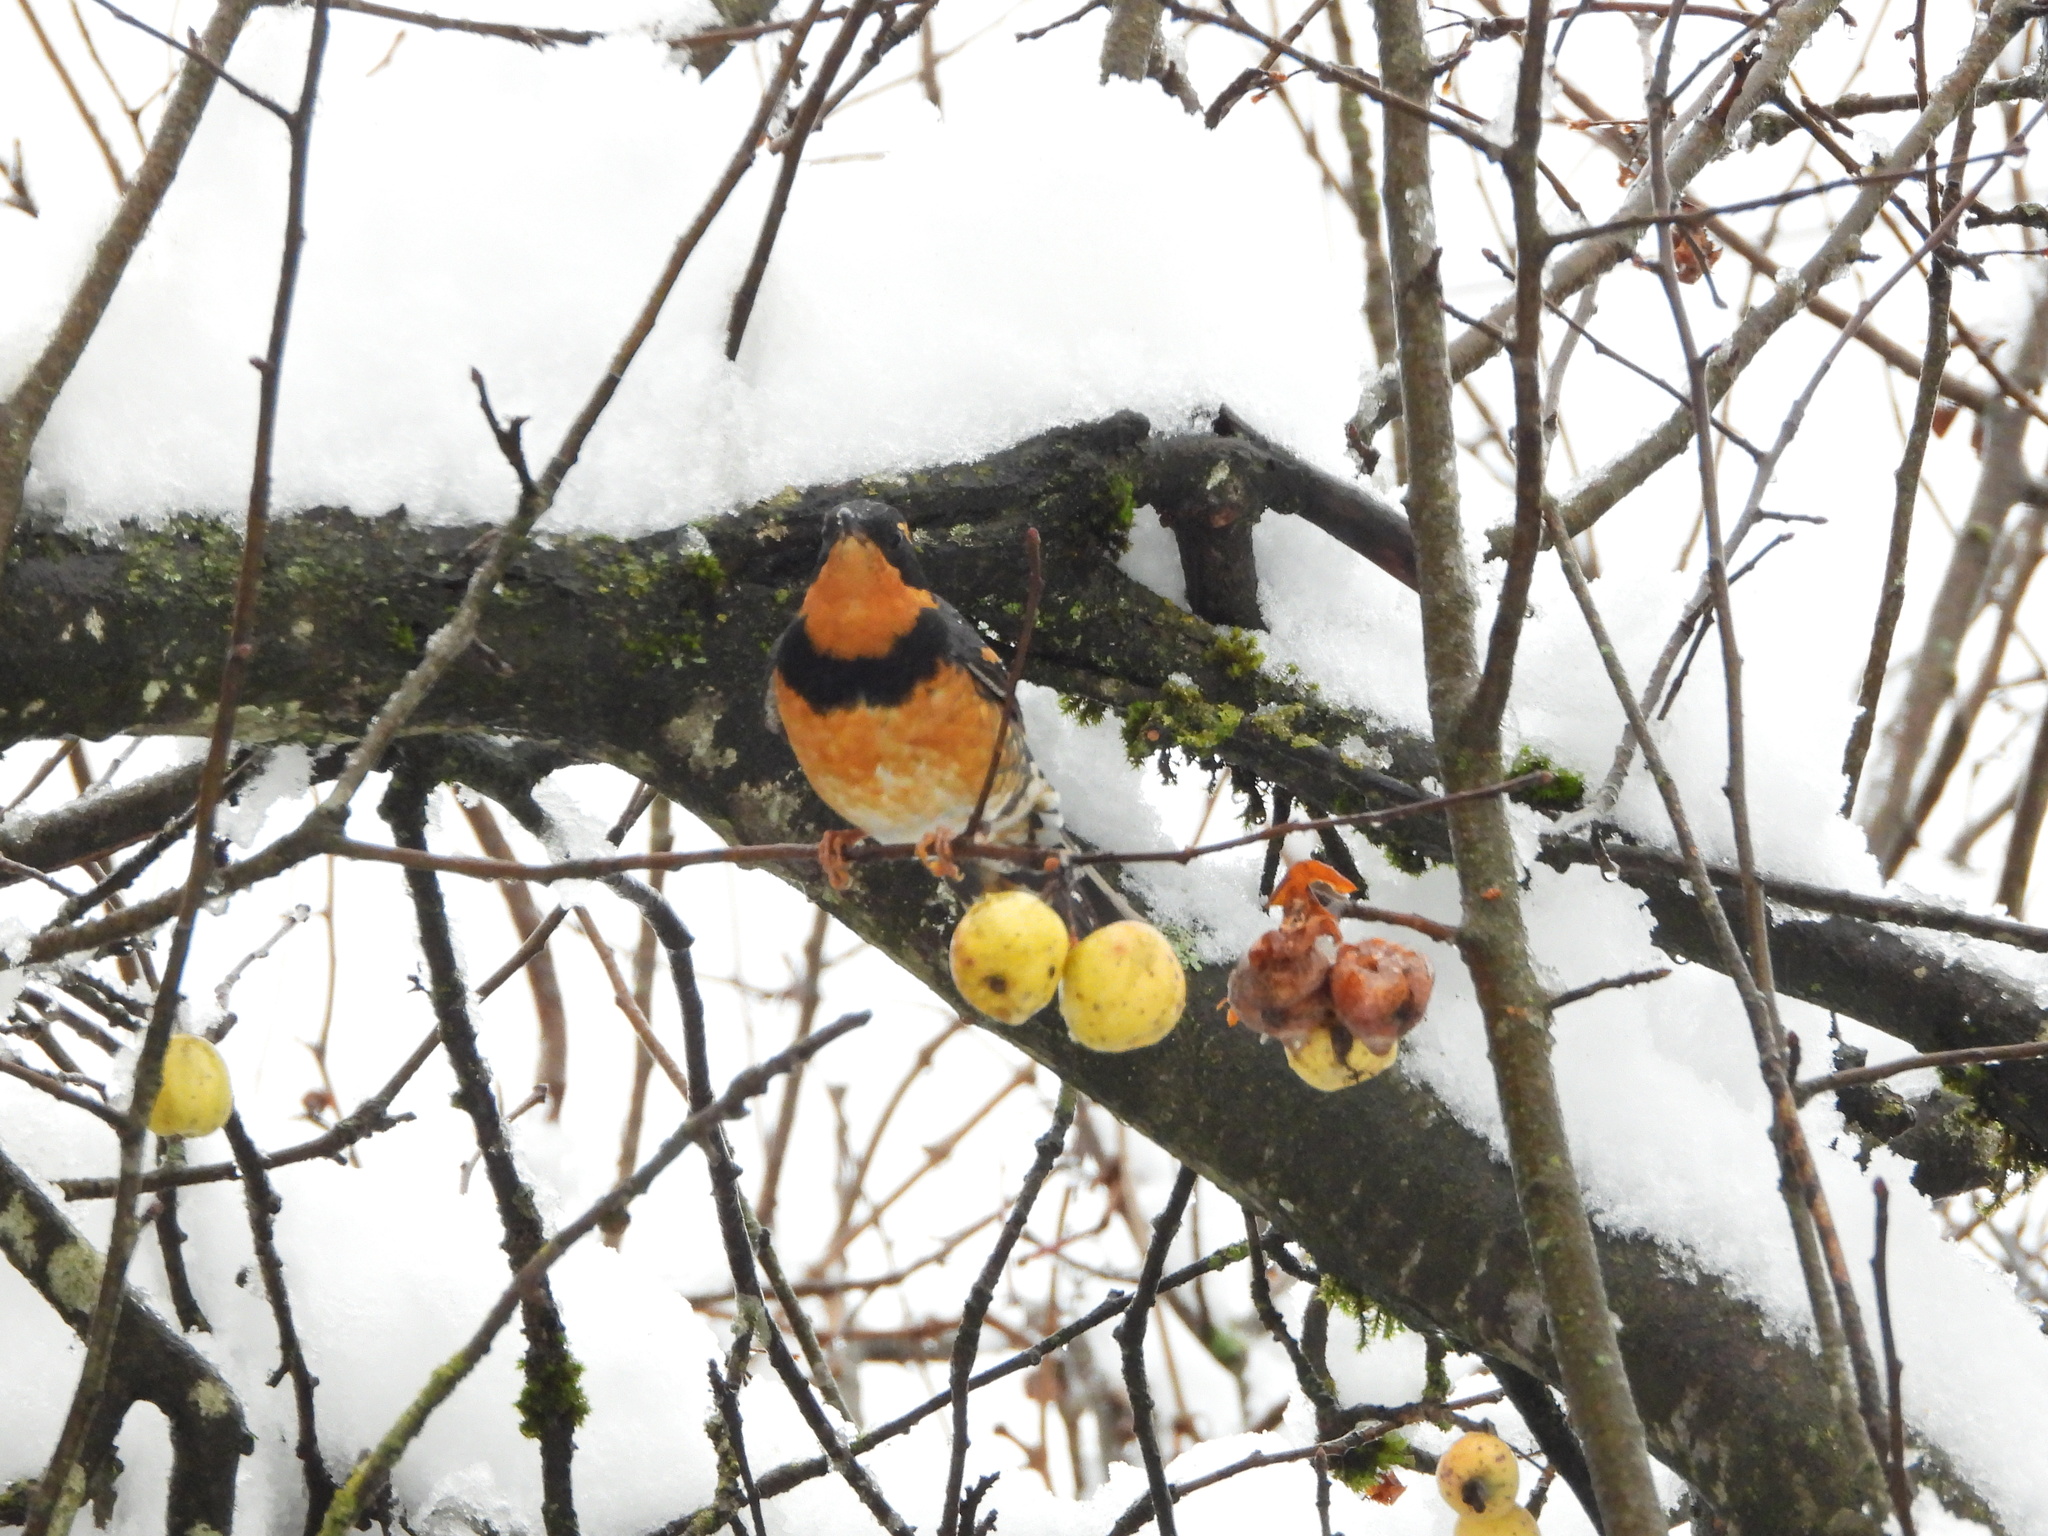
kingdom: Animalia
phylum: Chordata
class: Aves
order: Passeriformes
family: Turdidae
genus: Ixoreus
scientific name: Ixoreus naevius
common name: Varied thrush
